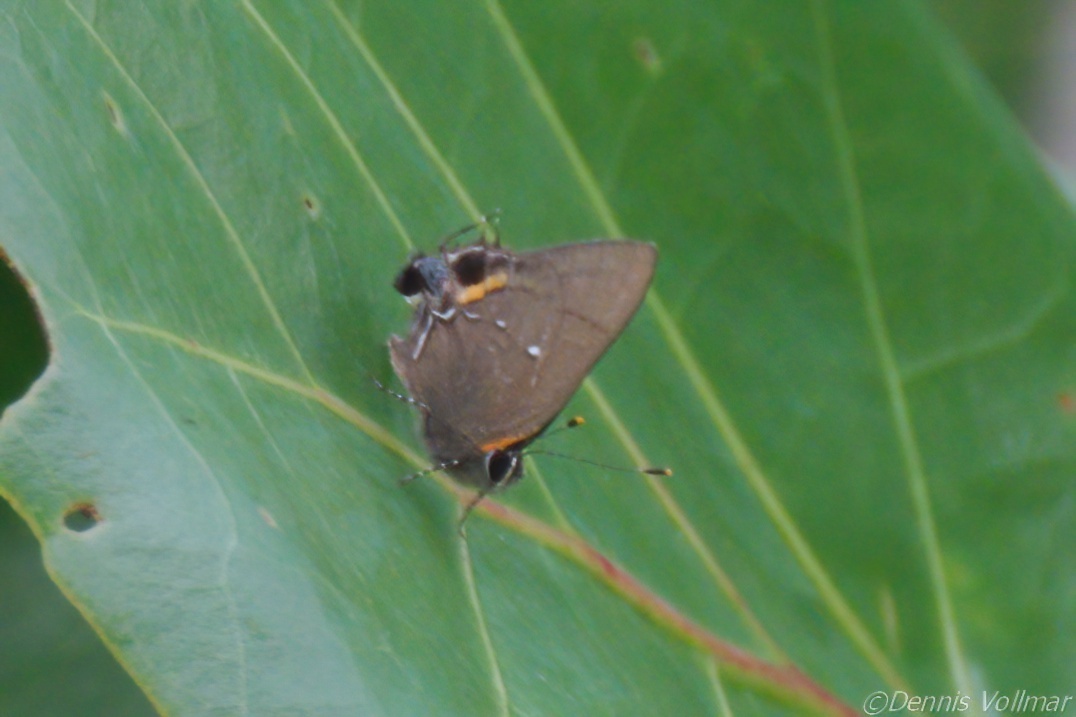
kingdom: Animalia
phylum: Arthropoda
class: Insecta
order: Lepidoptera
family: Lycaenidae
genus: Thecla
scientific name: Thecla angelia
